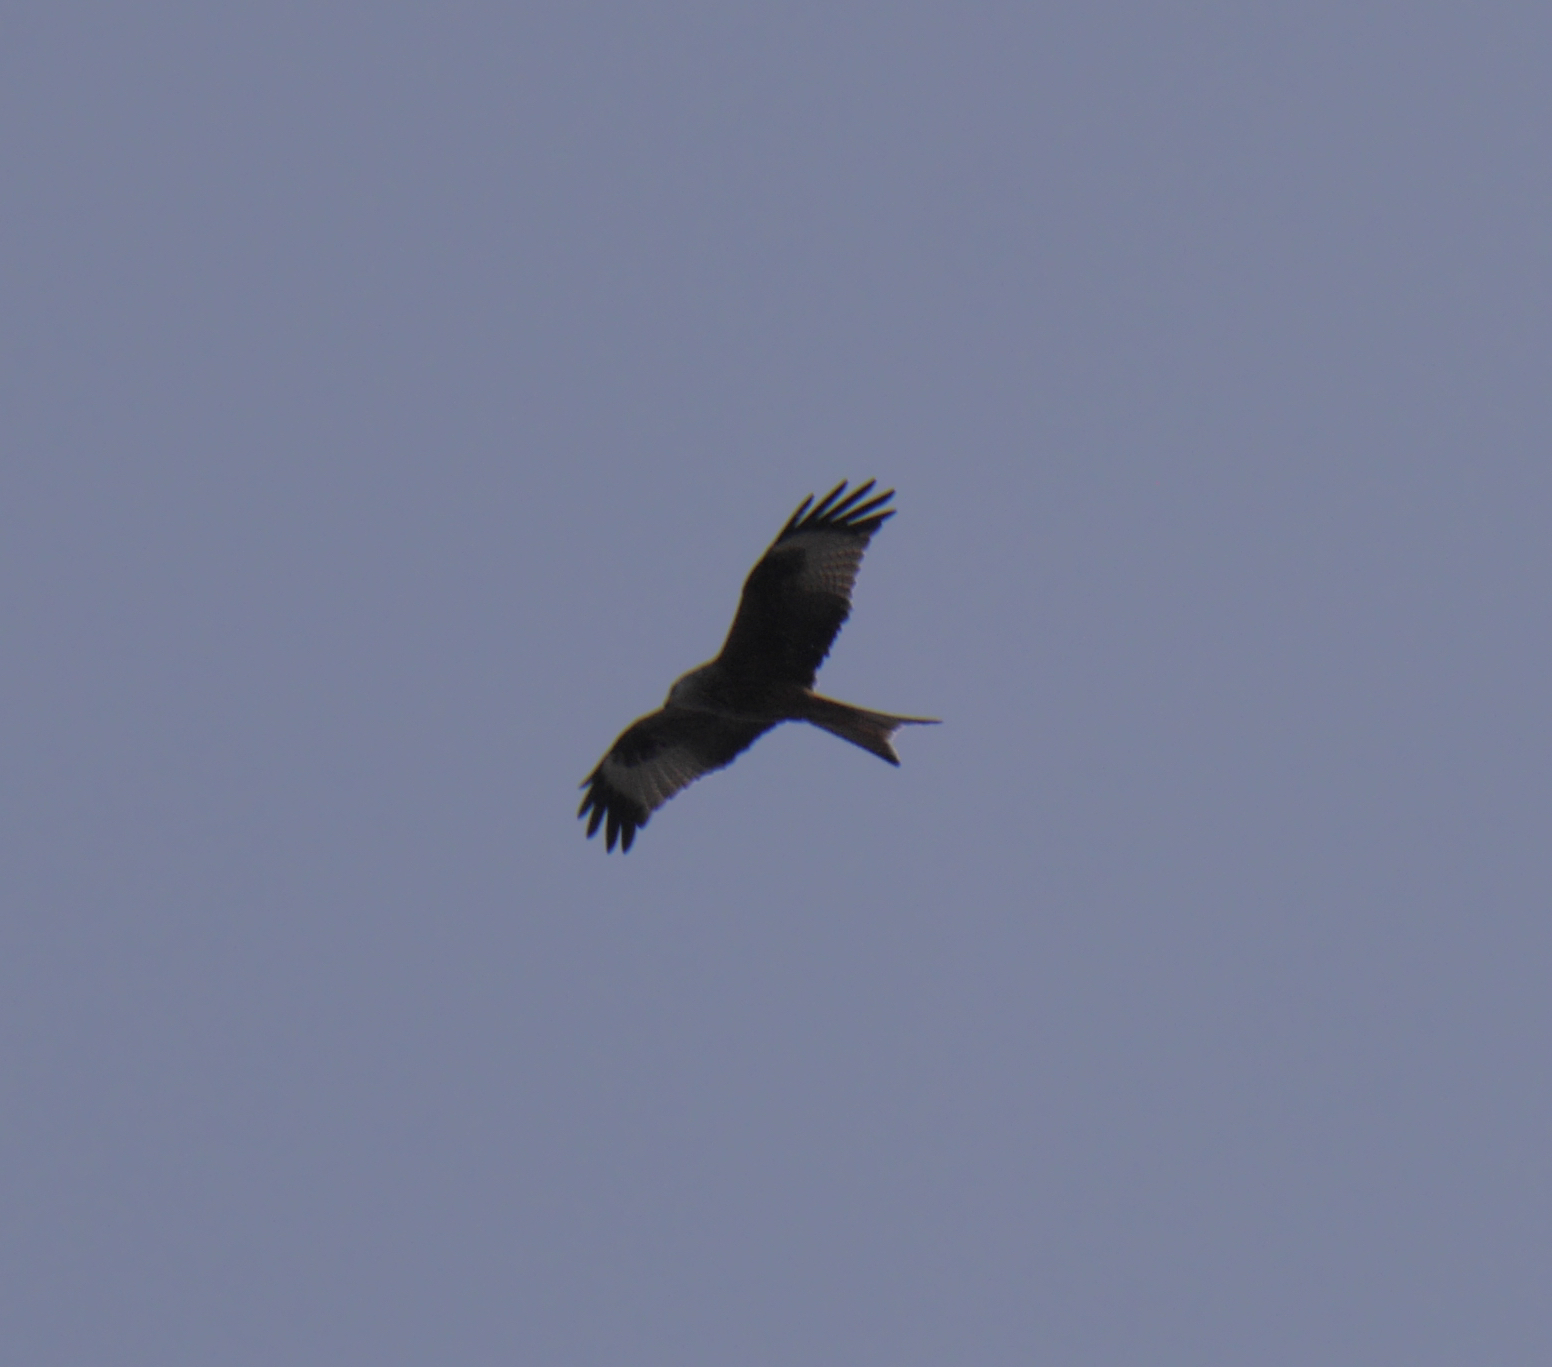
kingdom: Animalia
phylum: Chordata
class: Aves
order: Accipitriformes
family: Accipitridae
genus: Milvus
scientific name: Milvus milvus
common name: Red kite
